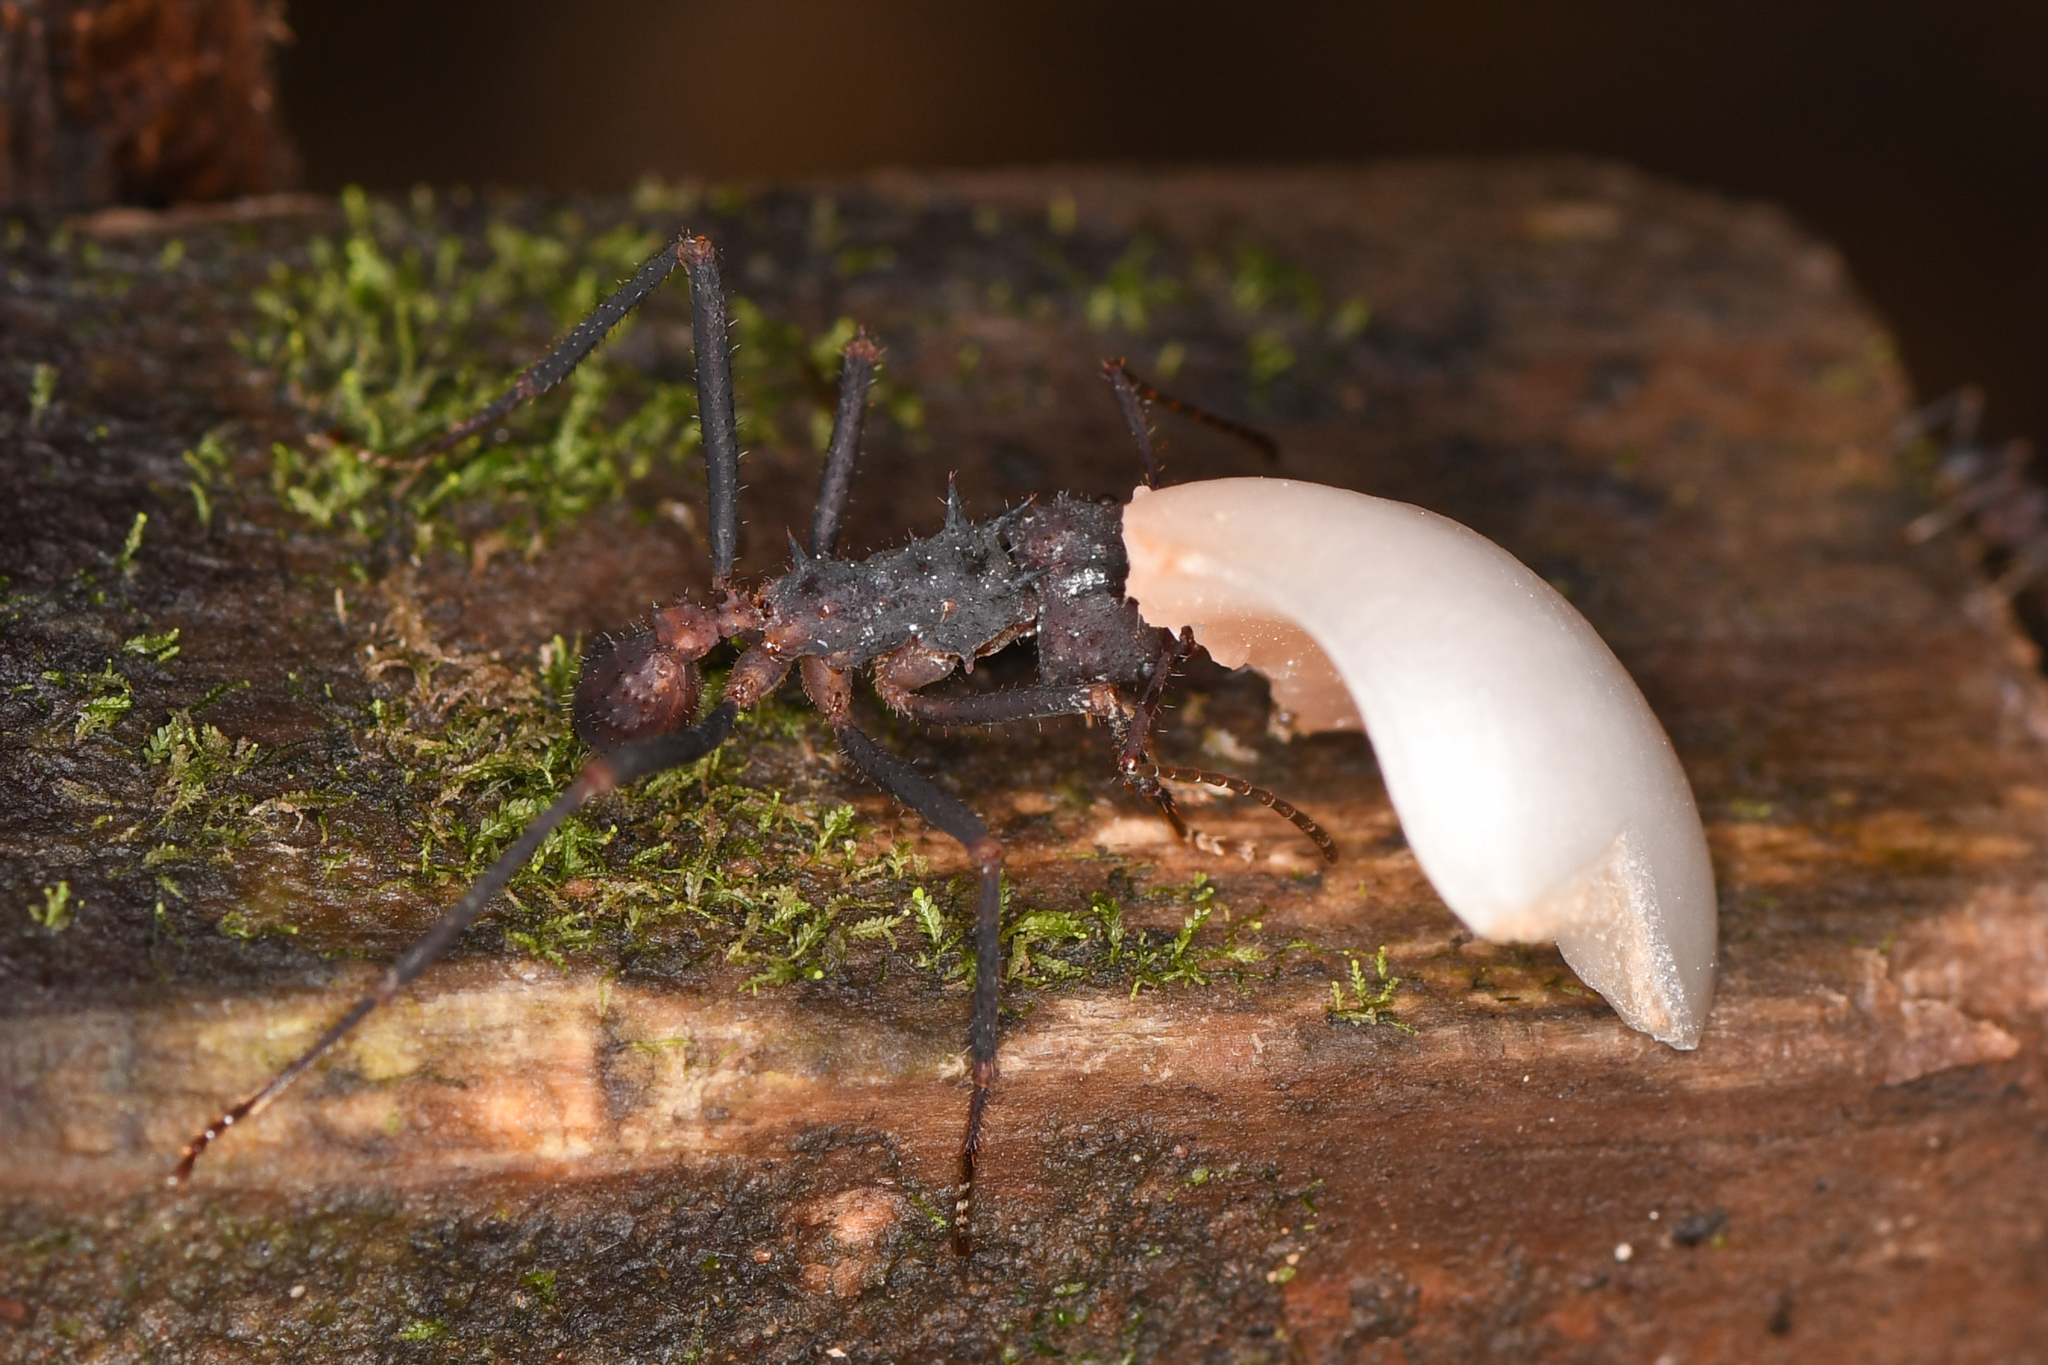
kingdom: Animalia
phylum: Arthropoda
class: Insecta
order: Hymenoptera
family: Formicidae
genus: Acromyrmex
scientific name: Acromyrmex volcanus
